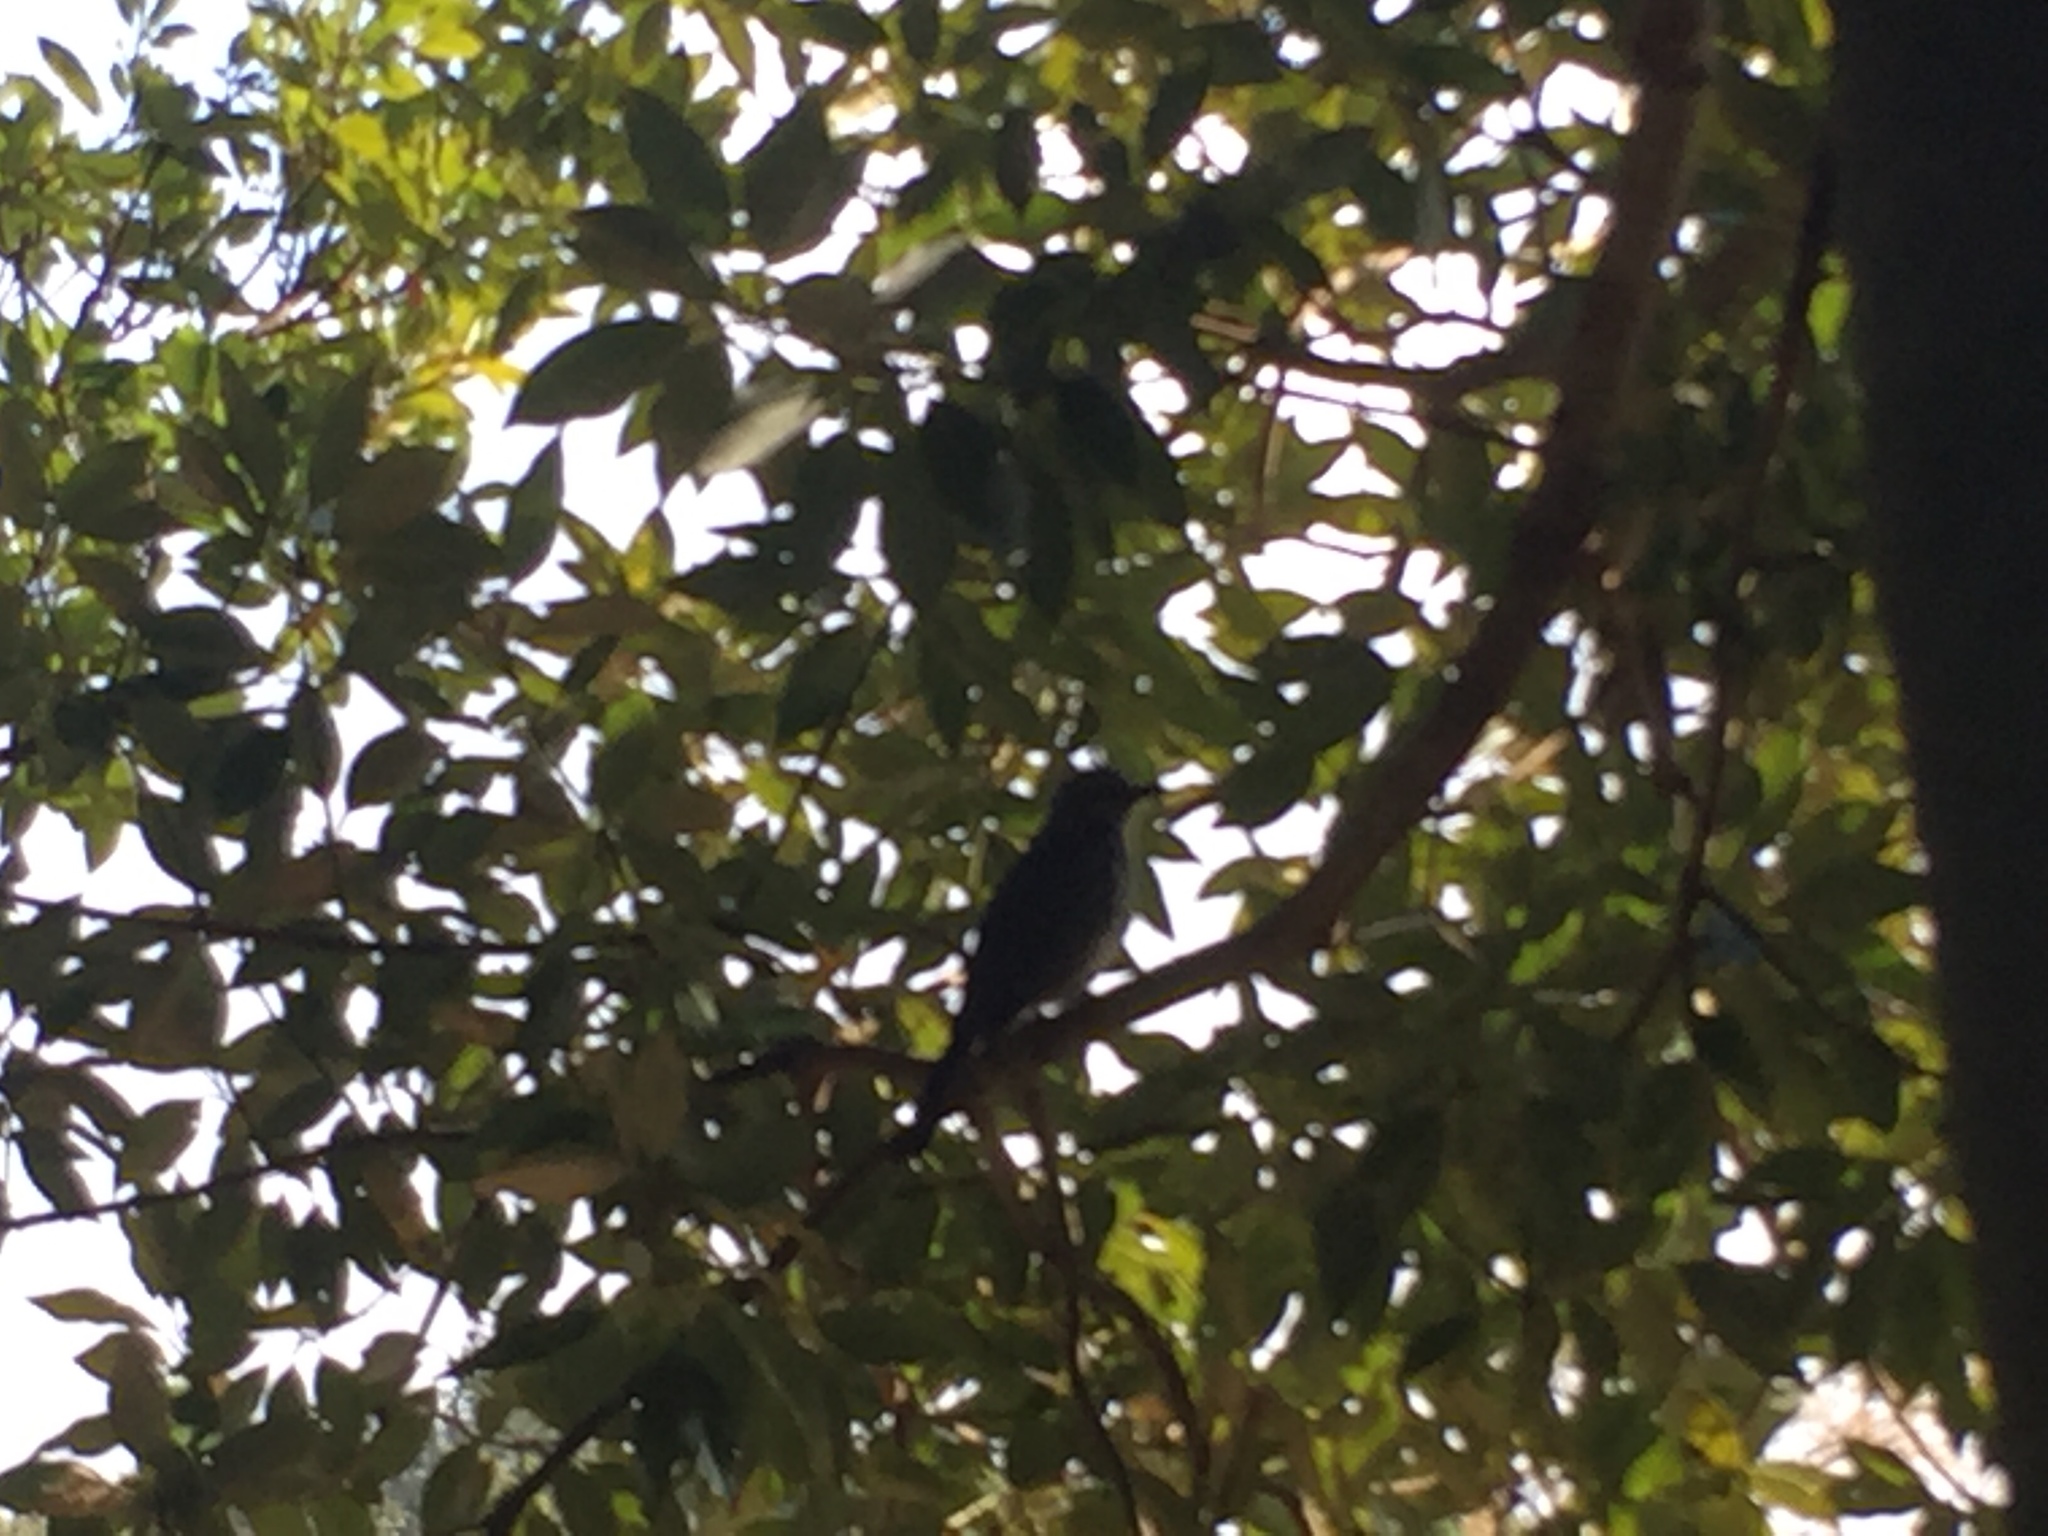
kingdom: Animalia
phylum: Chordata
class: Aves
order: Passeriformes
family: Pycnonotidae
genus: Hypsipetes
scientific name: Hypsipetes amaurotis
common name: Brown-eared bulbul
